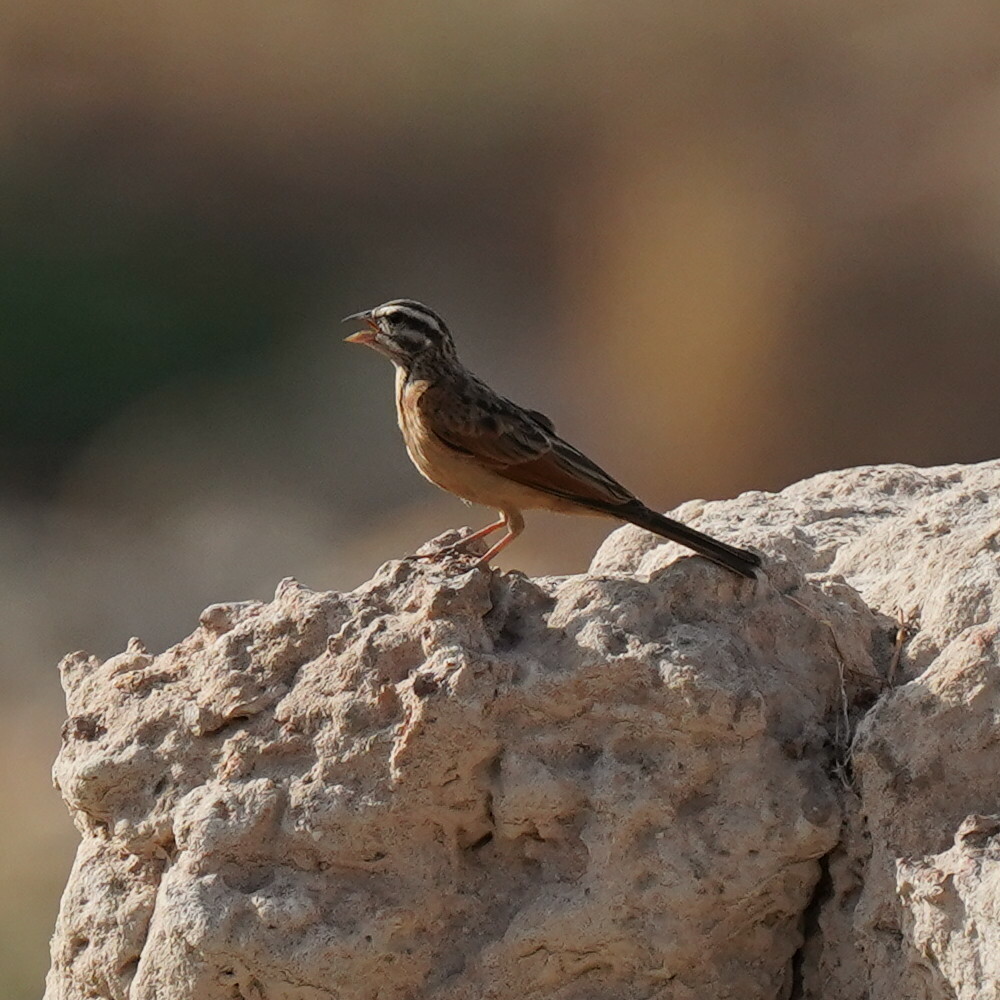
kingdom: Animalia
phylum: Chordata
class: Aves
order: Passeriformes
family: Emberizidae
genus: Emberiza
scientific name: Emberiza goslingi
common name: Gosling's bunting
